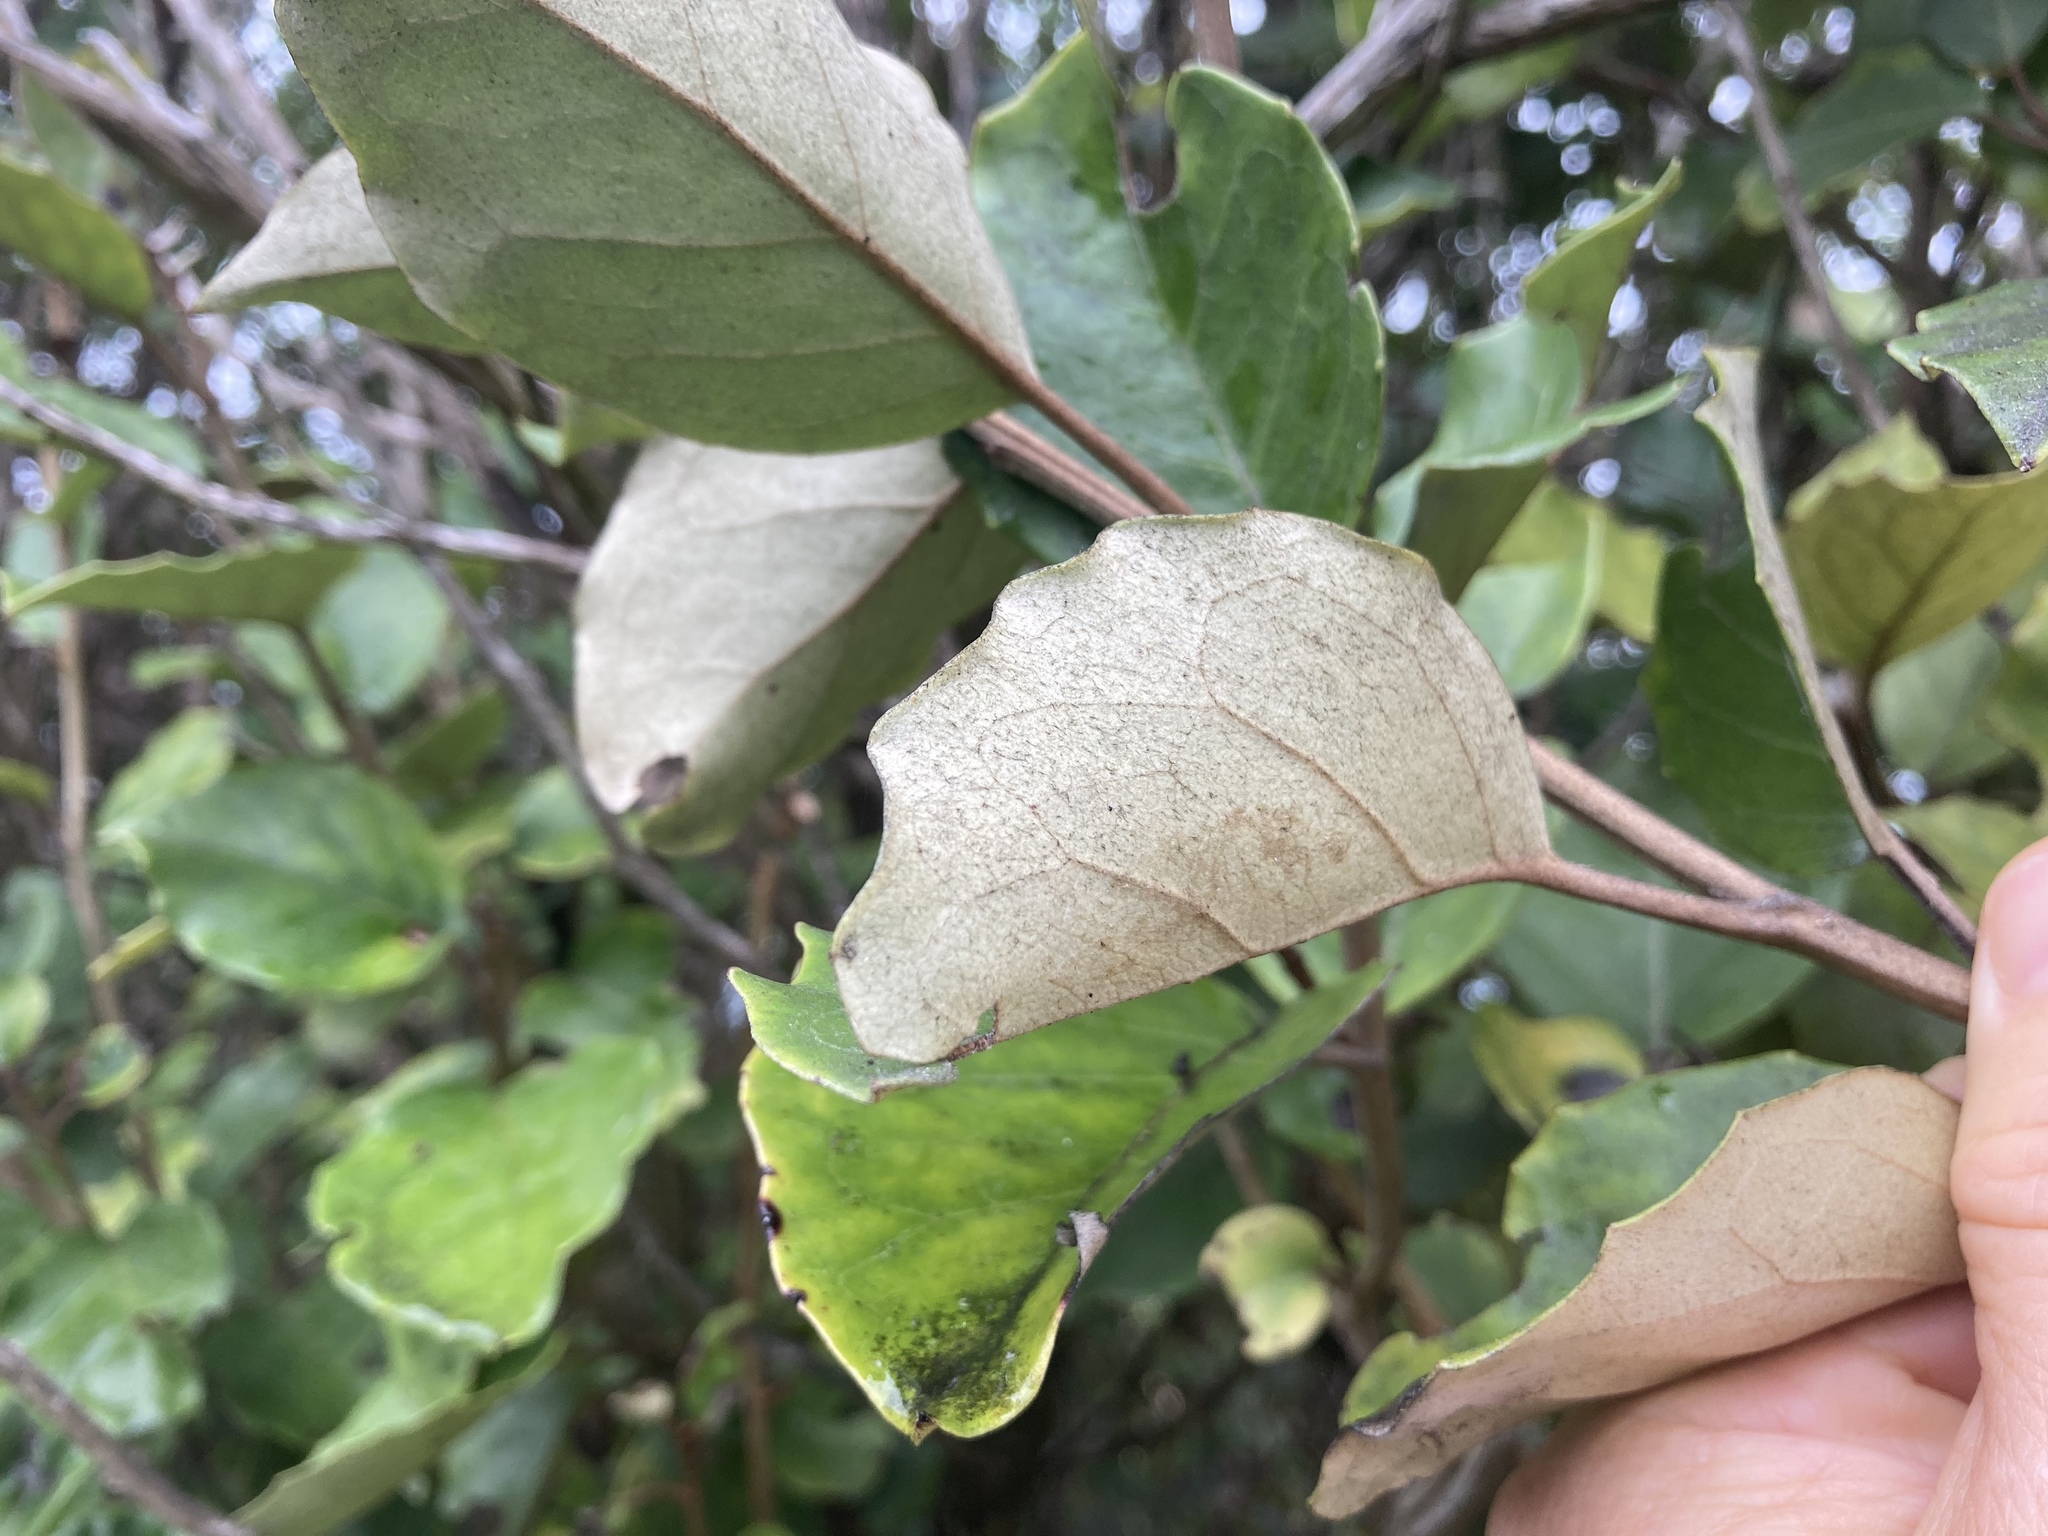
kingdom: Plantae
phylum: Tracheophyta
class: Magnoliopsida
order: Asterales
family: Asteraceae
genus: Olearia
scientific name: Olearia arborescens
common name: Glossy tree daisy
